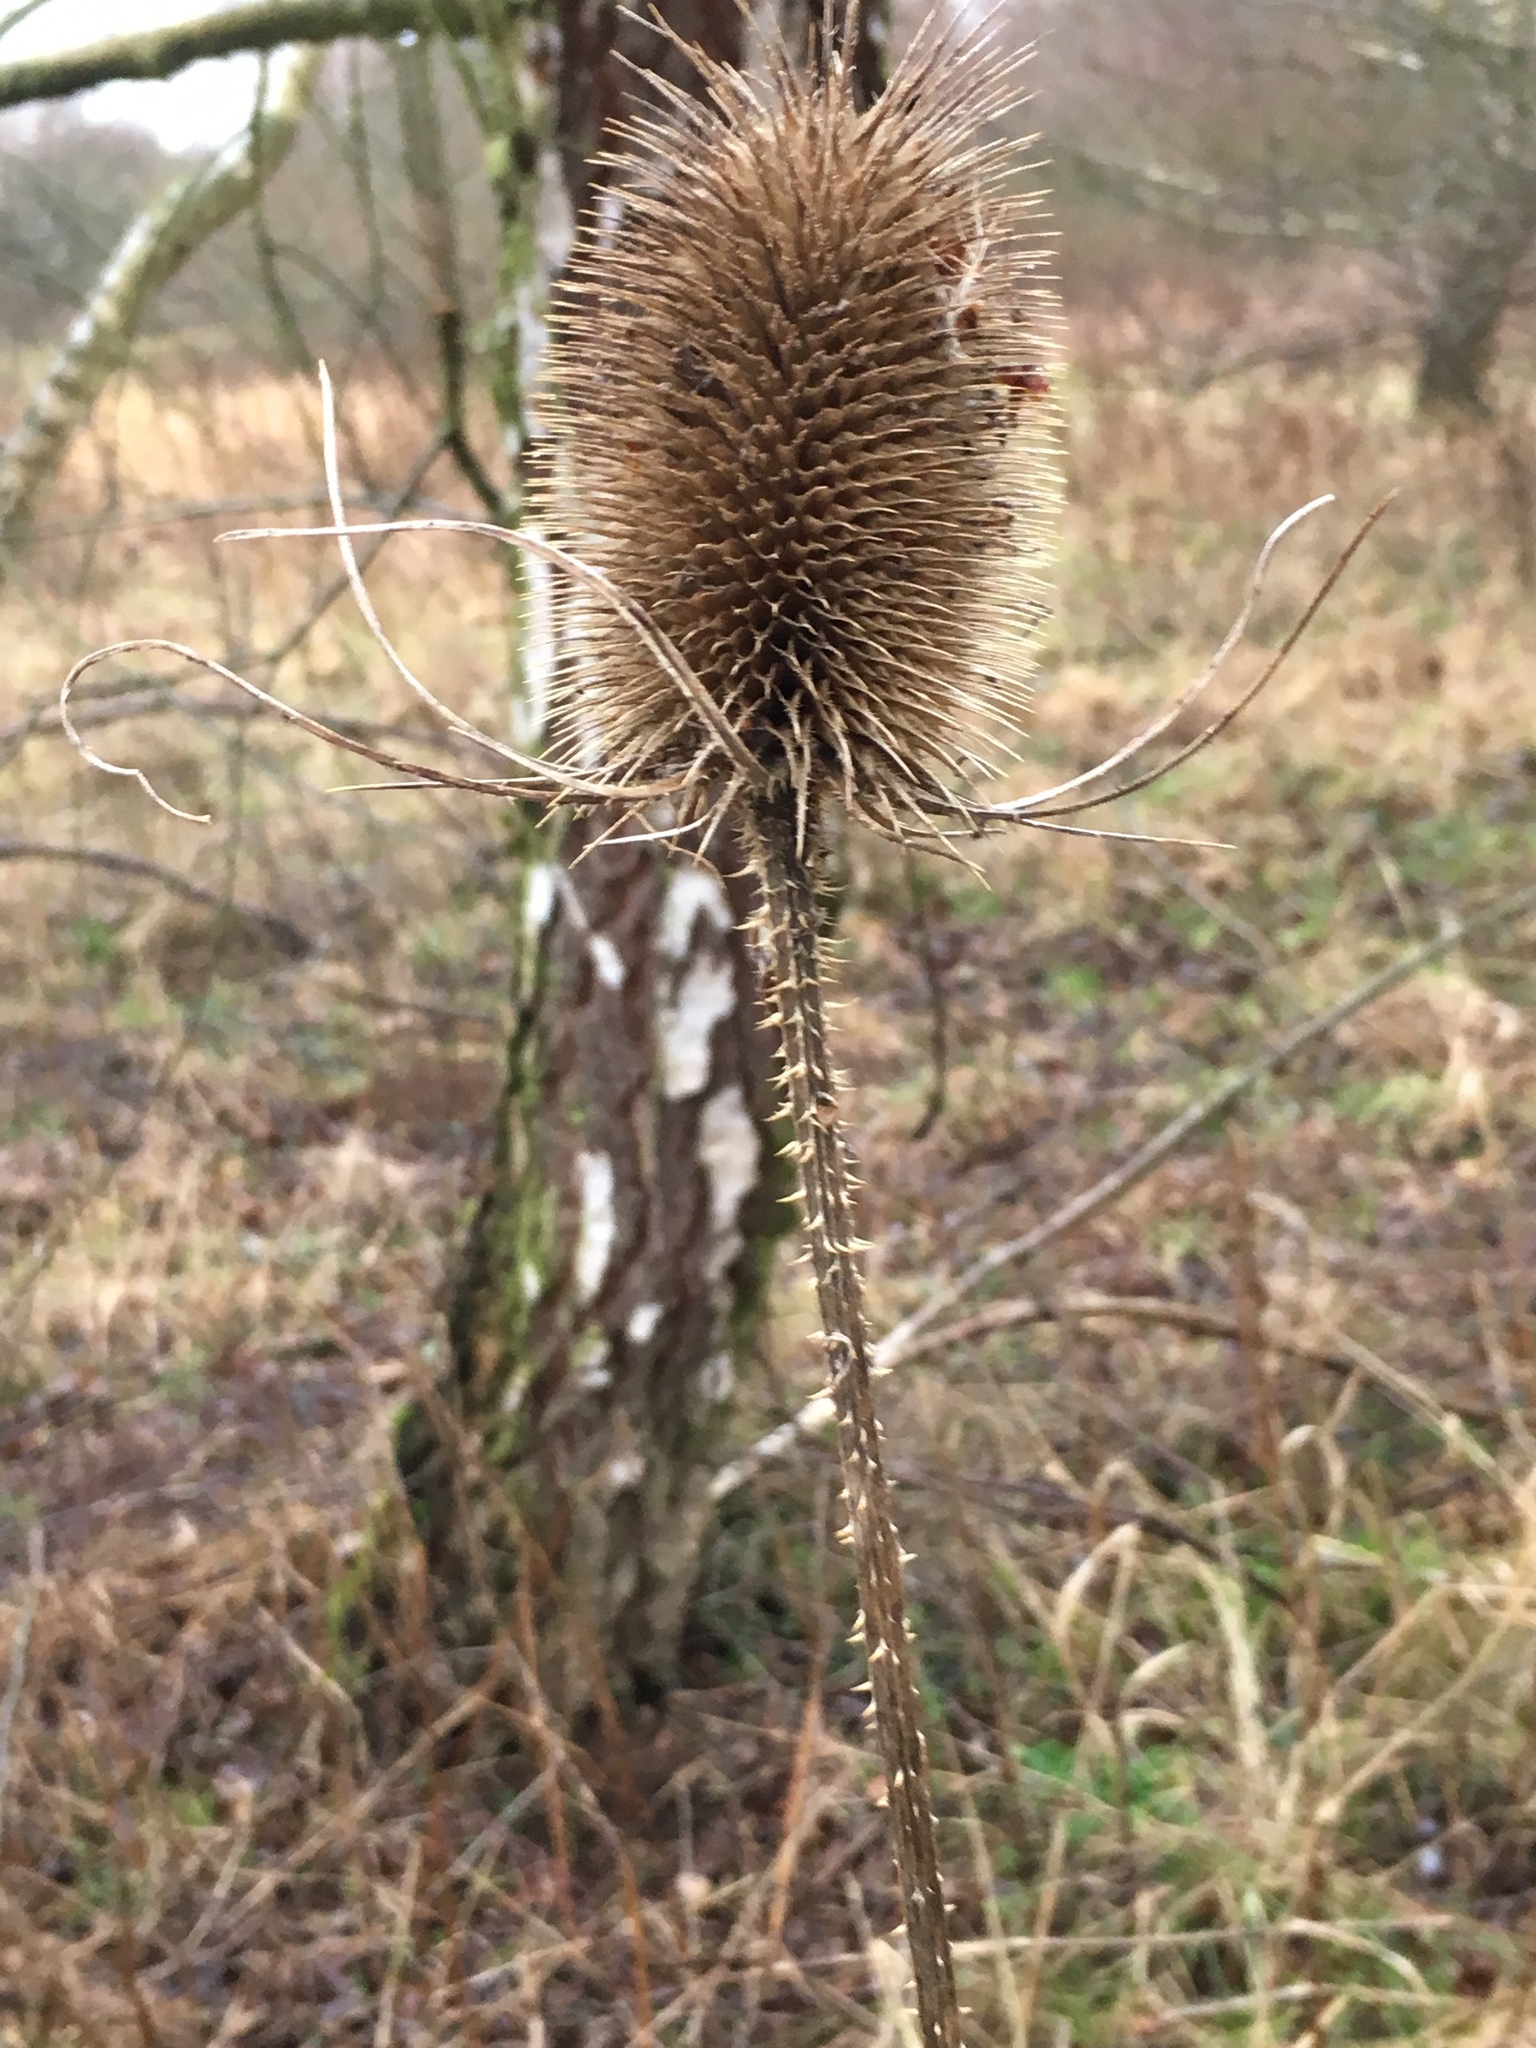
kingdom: Plantae
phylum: Tracheophyta
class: Magnoliopsida
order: Dipsacales
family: Caprifoliaceae
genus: Dipsacus
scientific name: Dipsacus fullonum
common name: Teasel
